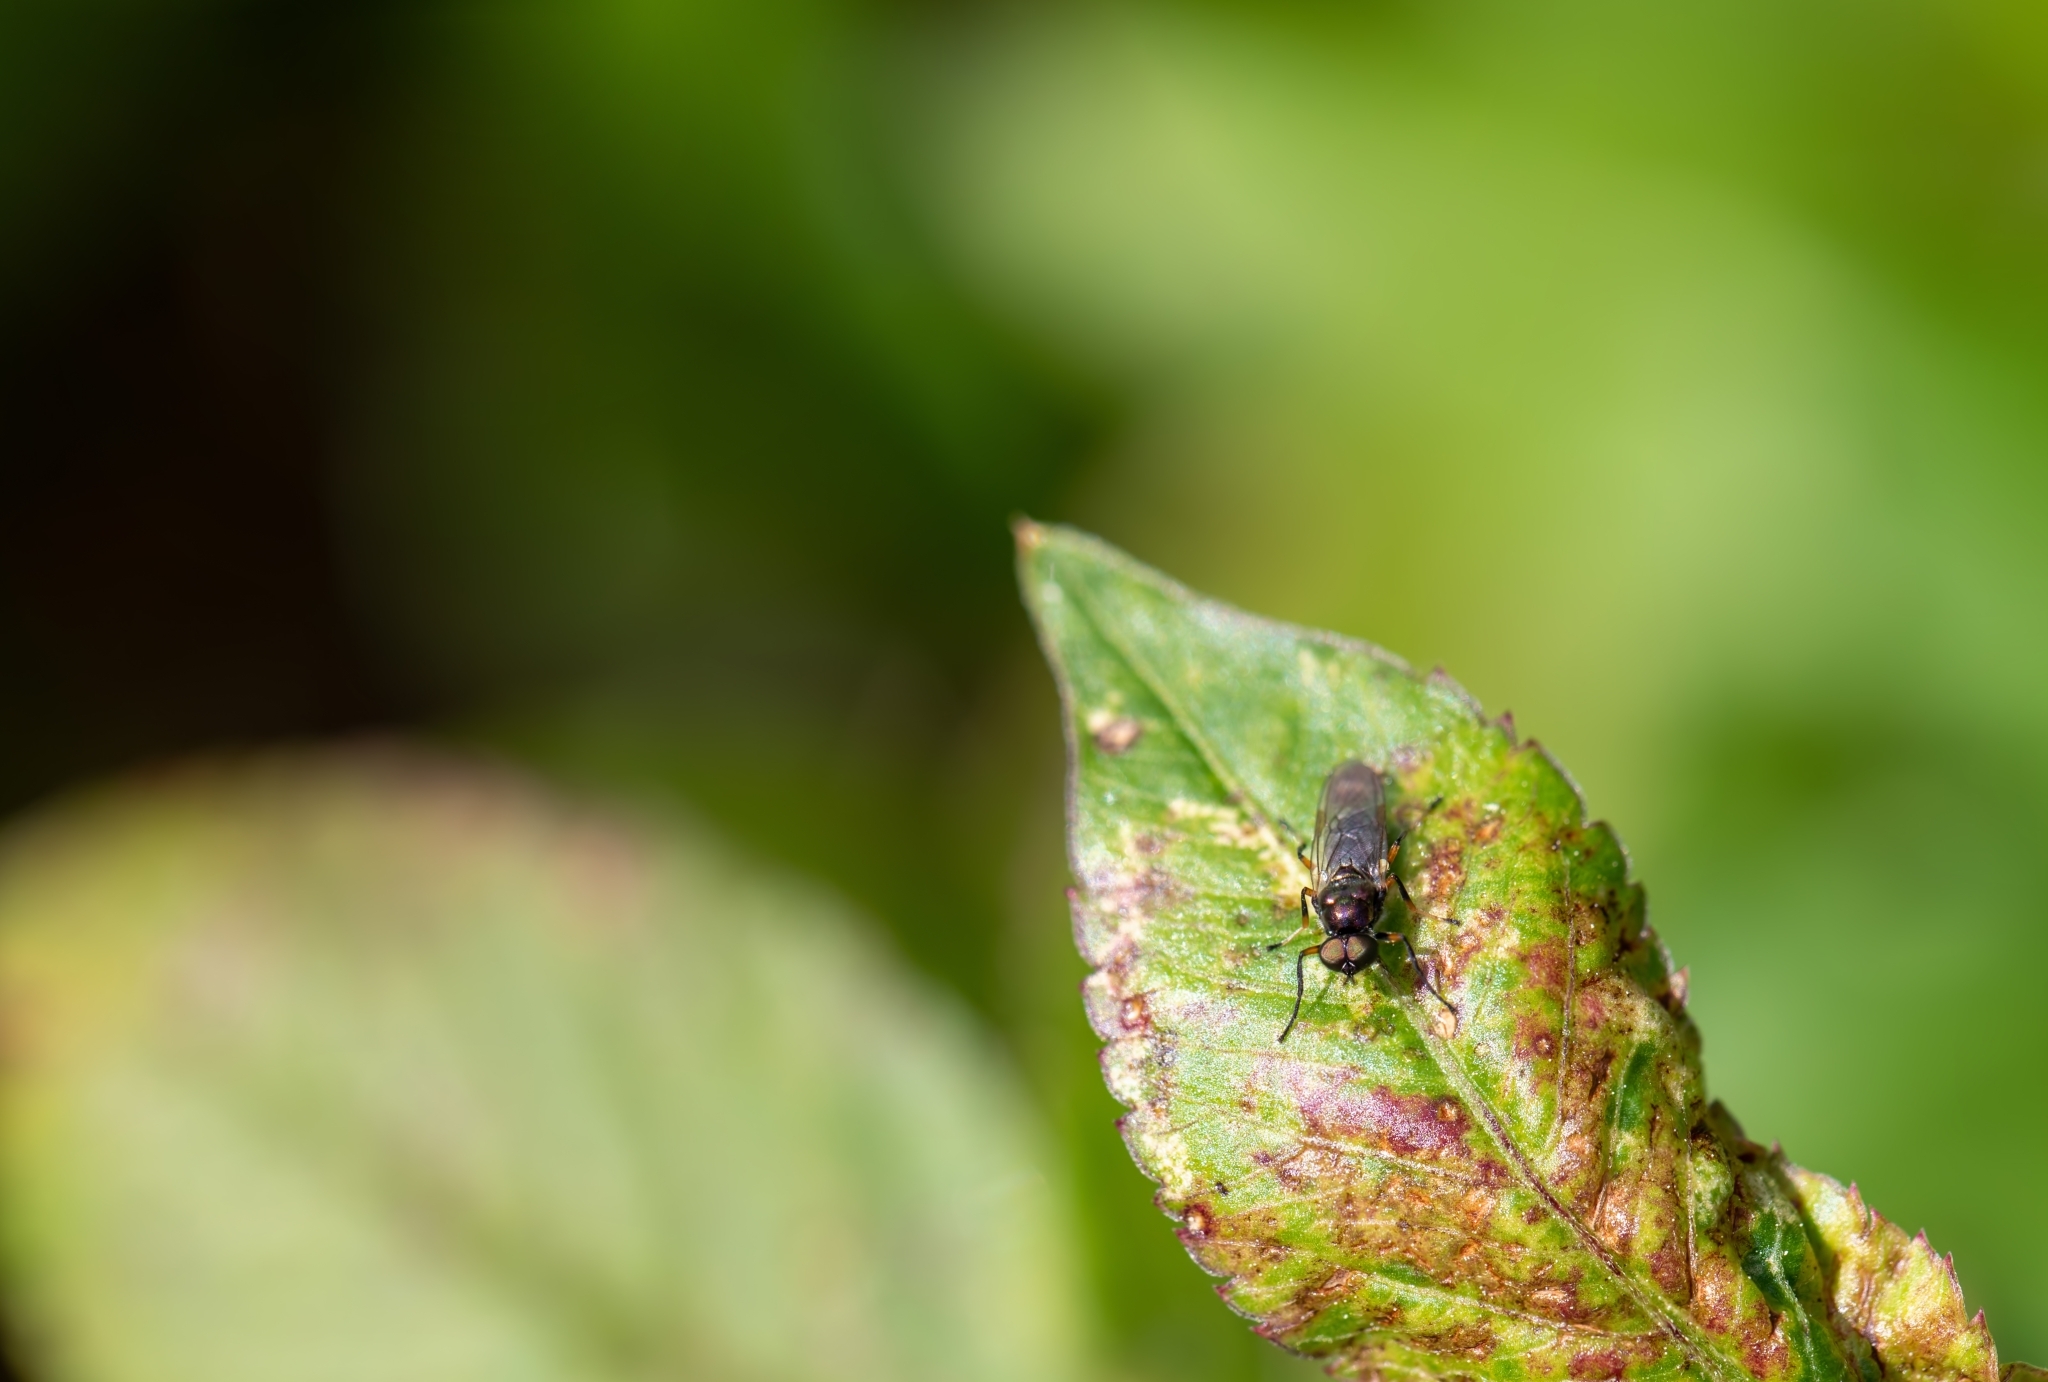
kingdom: Animalia
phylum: Arthropoda
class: Insecta
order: Diptera
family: Stratiomyidae
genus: Nothomyia
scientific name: Nothomyia calopus
